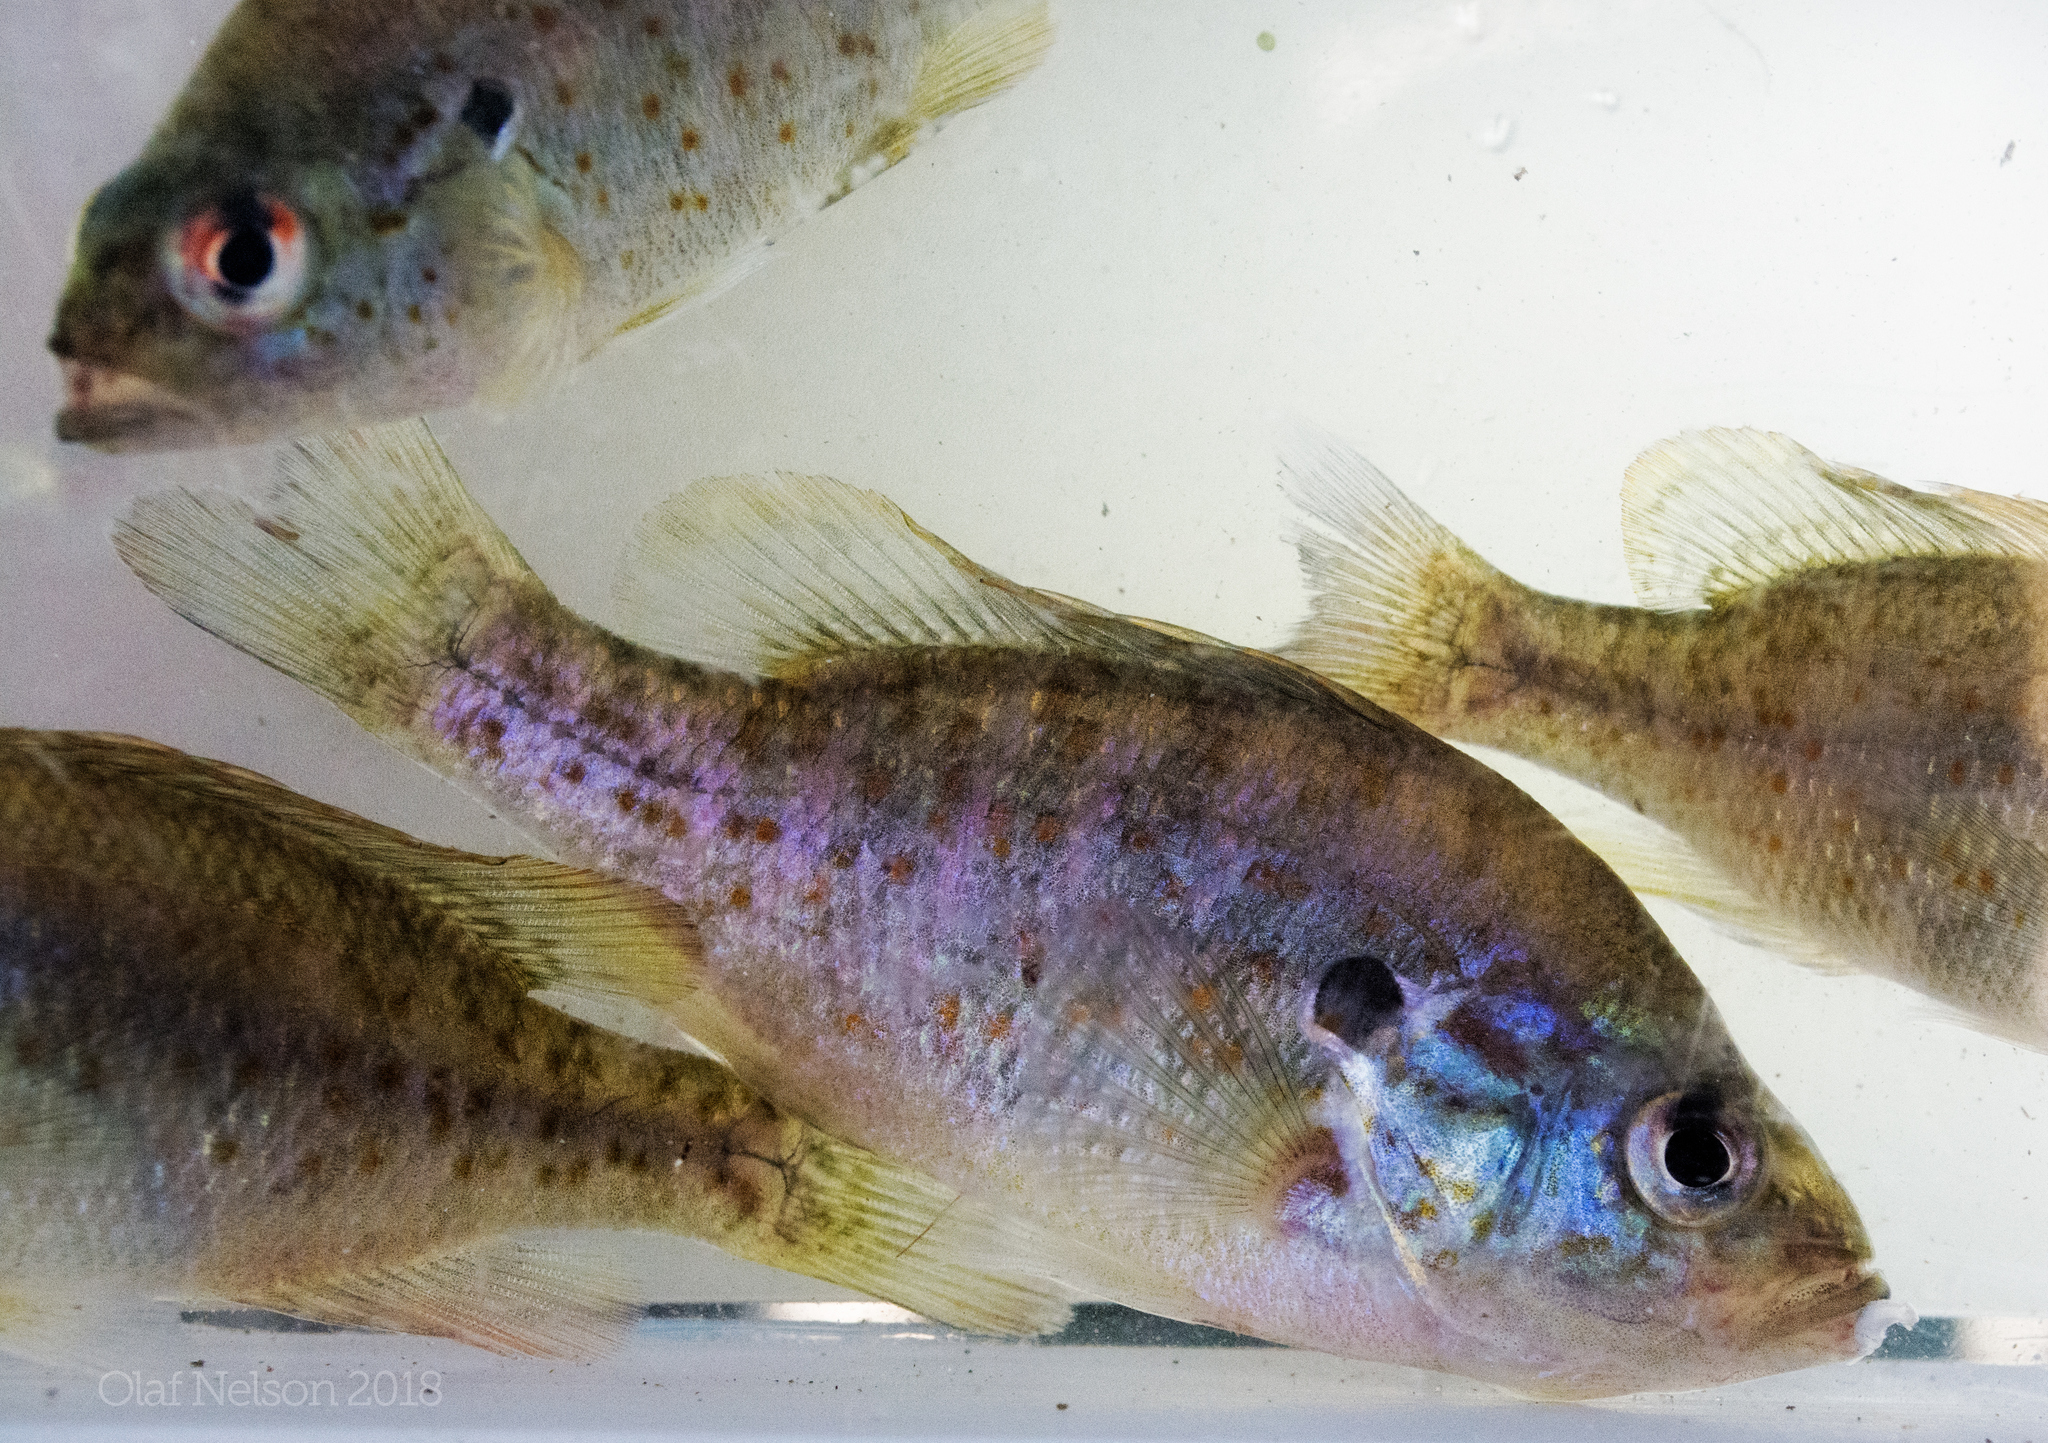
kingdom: Animalia
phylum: Chordata
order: Perciformes
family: Centrarchidae
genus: Lepomis
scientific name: Lepomis humilis
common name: Orangespotted sunfish
